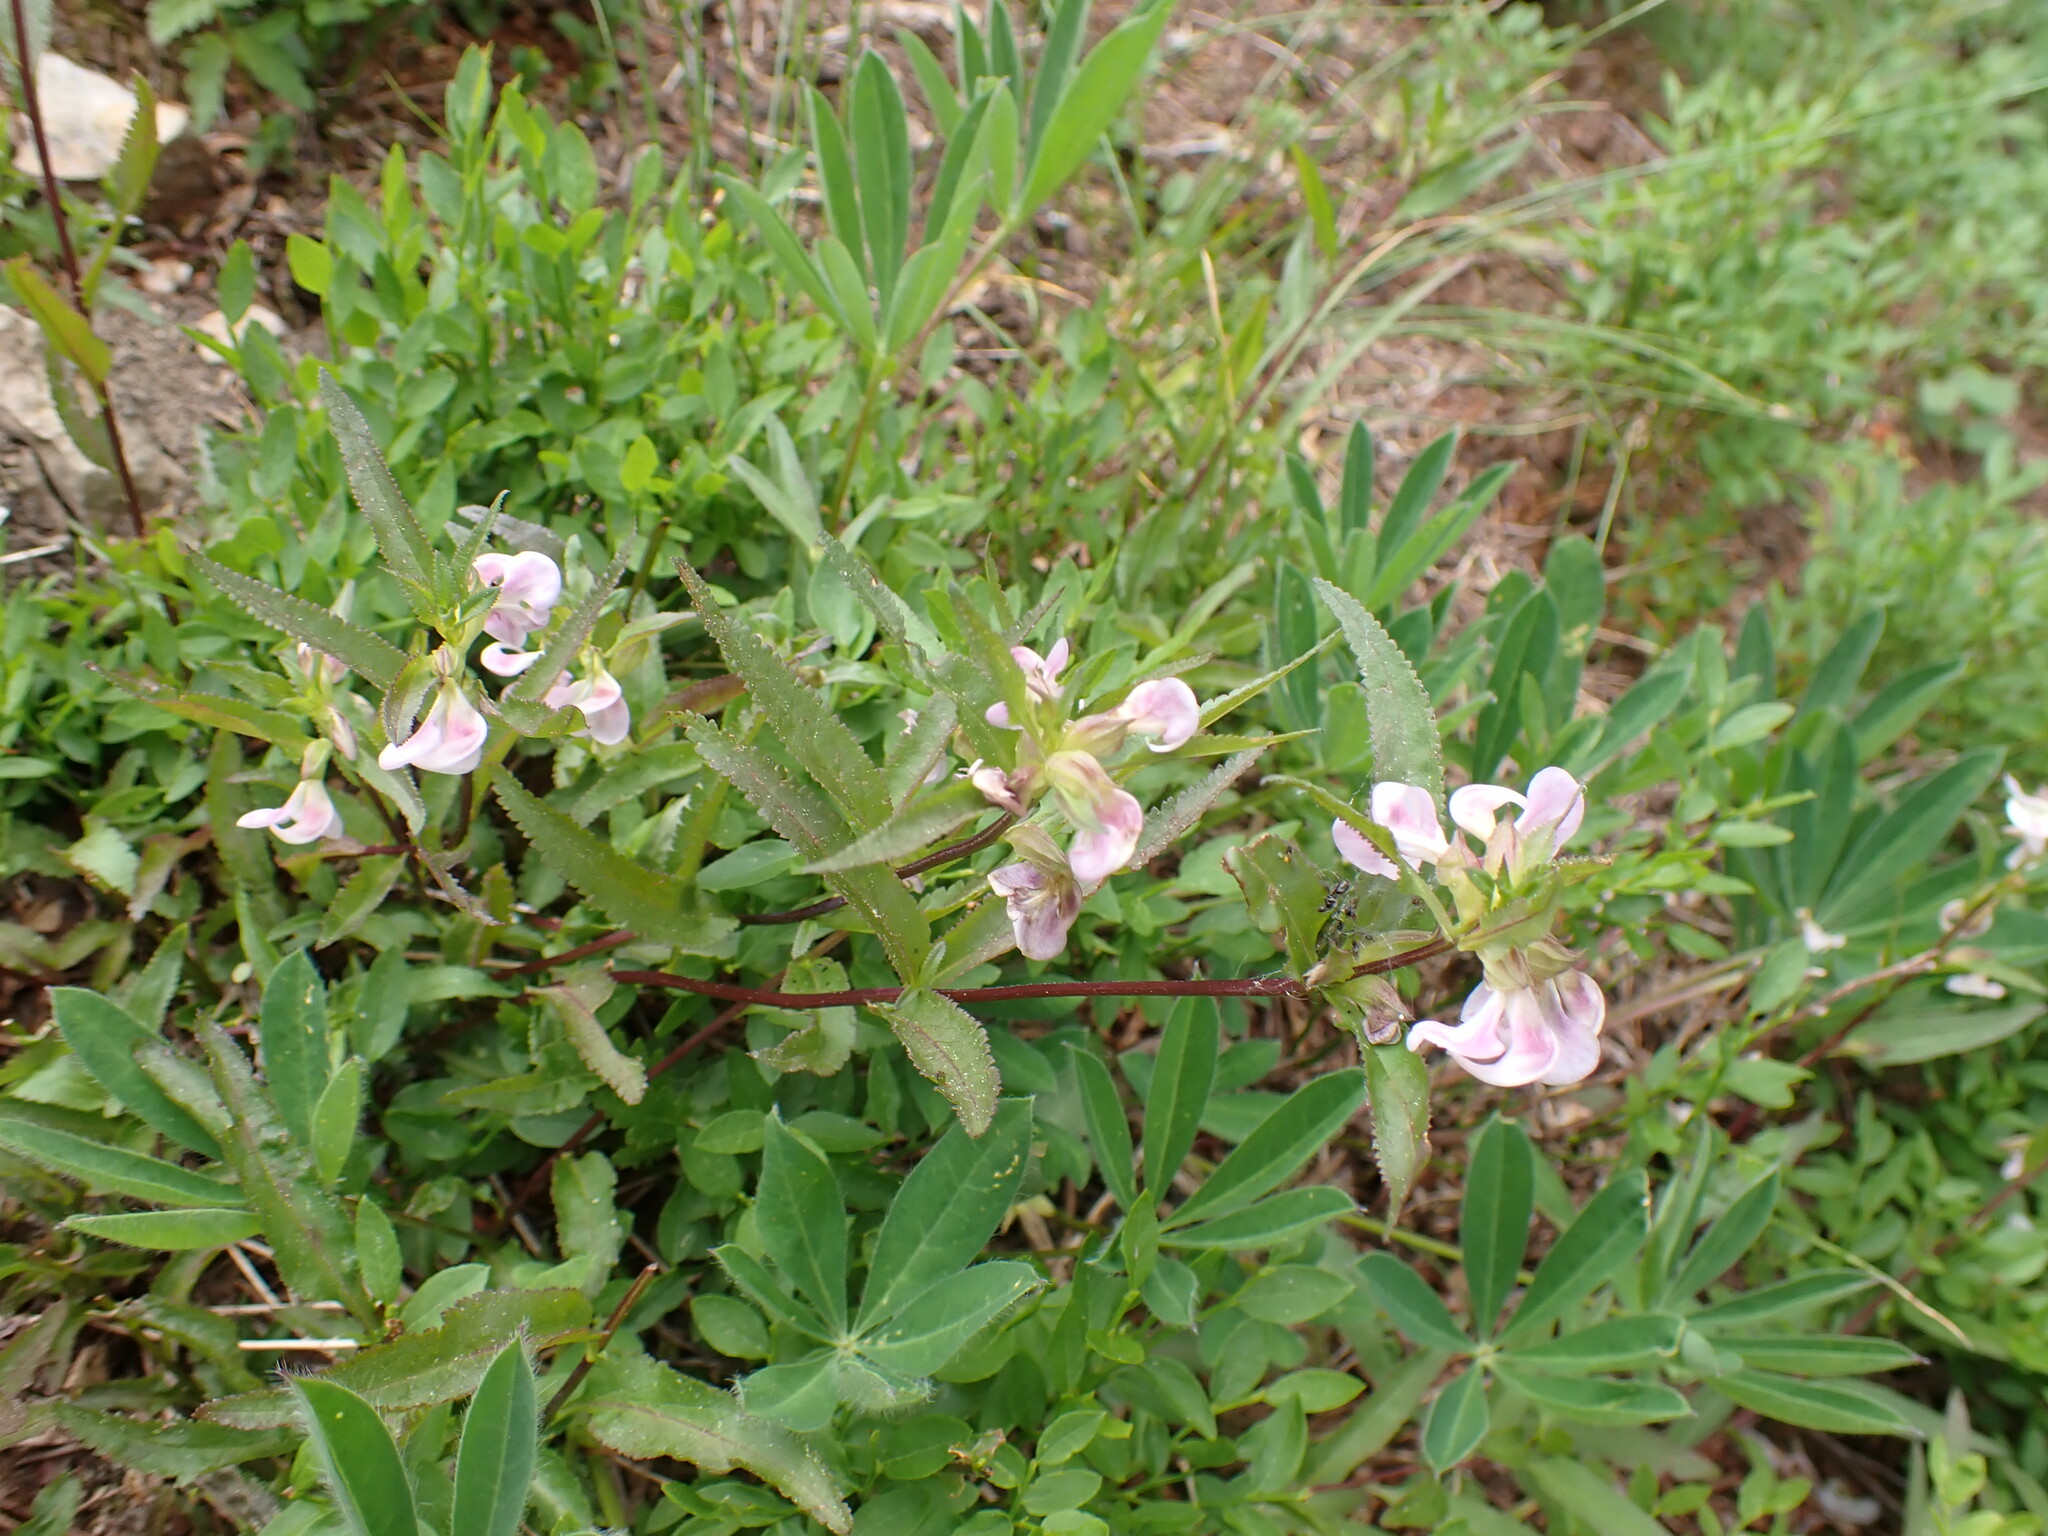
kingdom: Plantae
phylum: Tracheophyta
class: Magnoliopsida
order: Lamiales
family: Orobanchaceae
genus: Pedicularis
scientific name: Pedicularis racemosa
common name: Leafy lousewort
